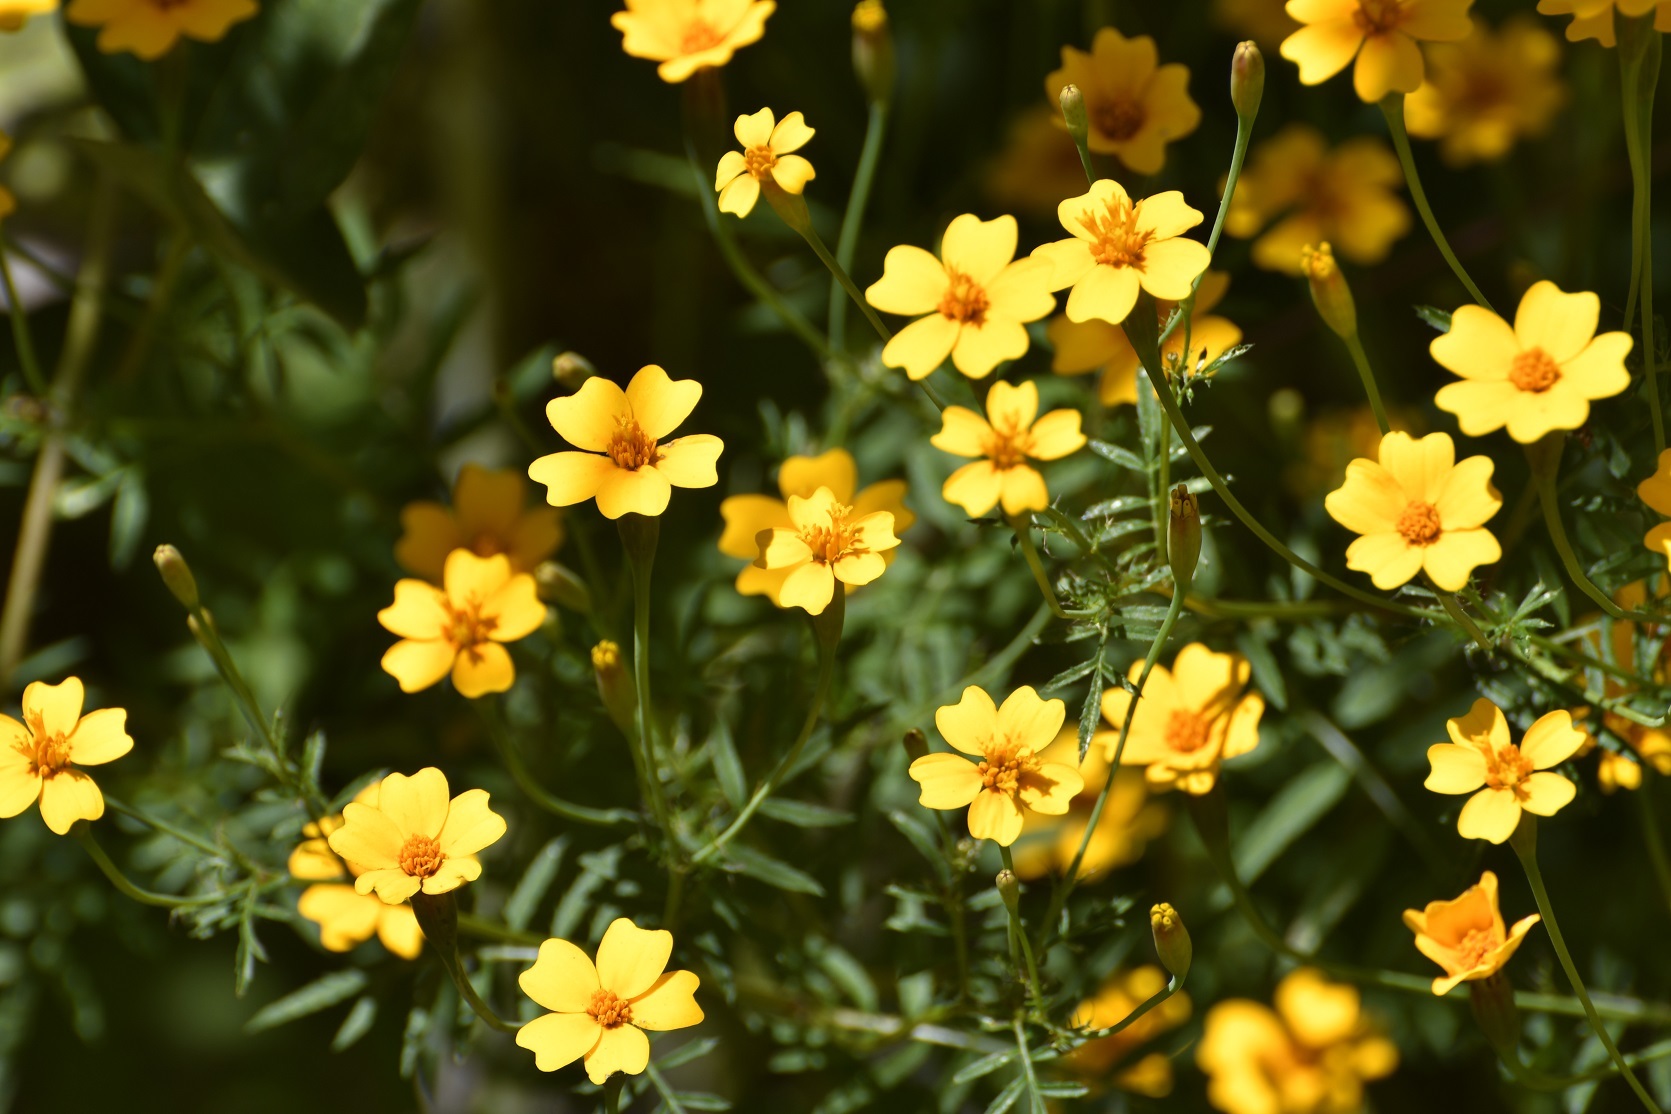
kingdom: Plantae
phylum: Tracheophyta
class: Magnoliopsida
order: Asterales
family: Asteraceae
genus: Tagetes
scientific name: Tagetes tenuifolia
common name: Signet marigold
